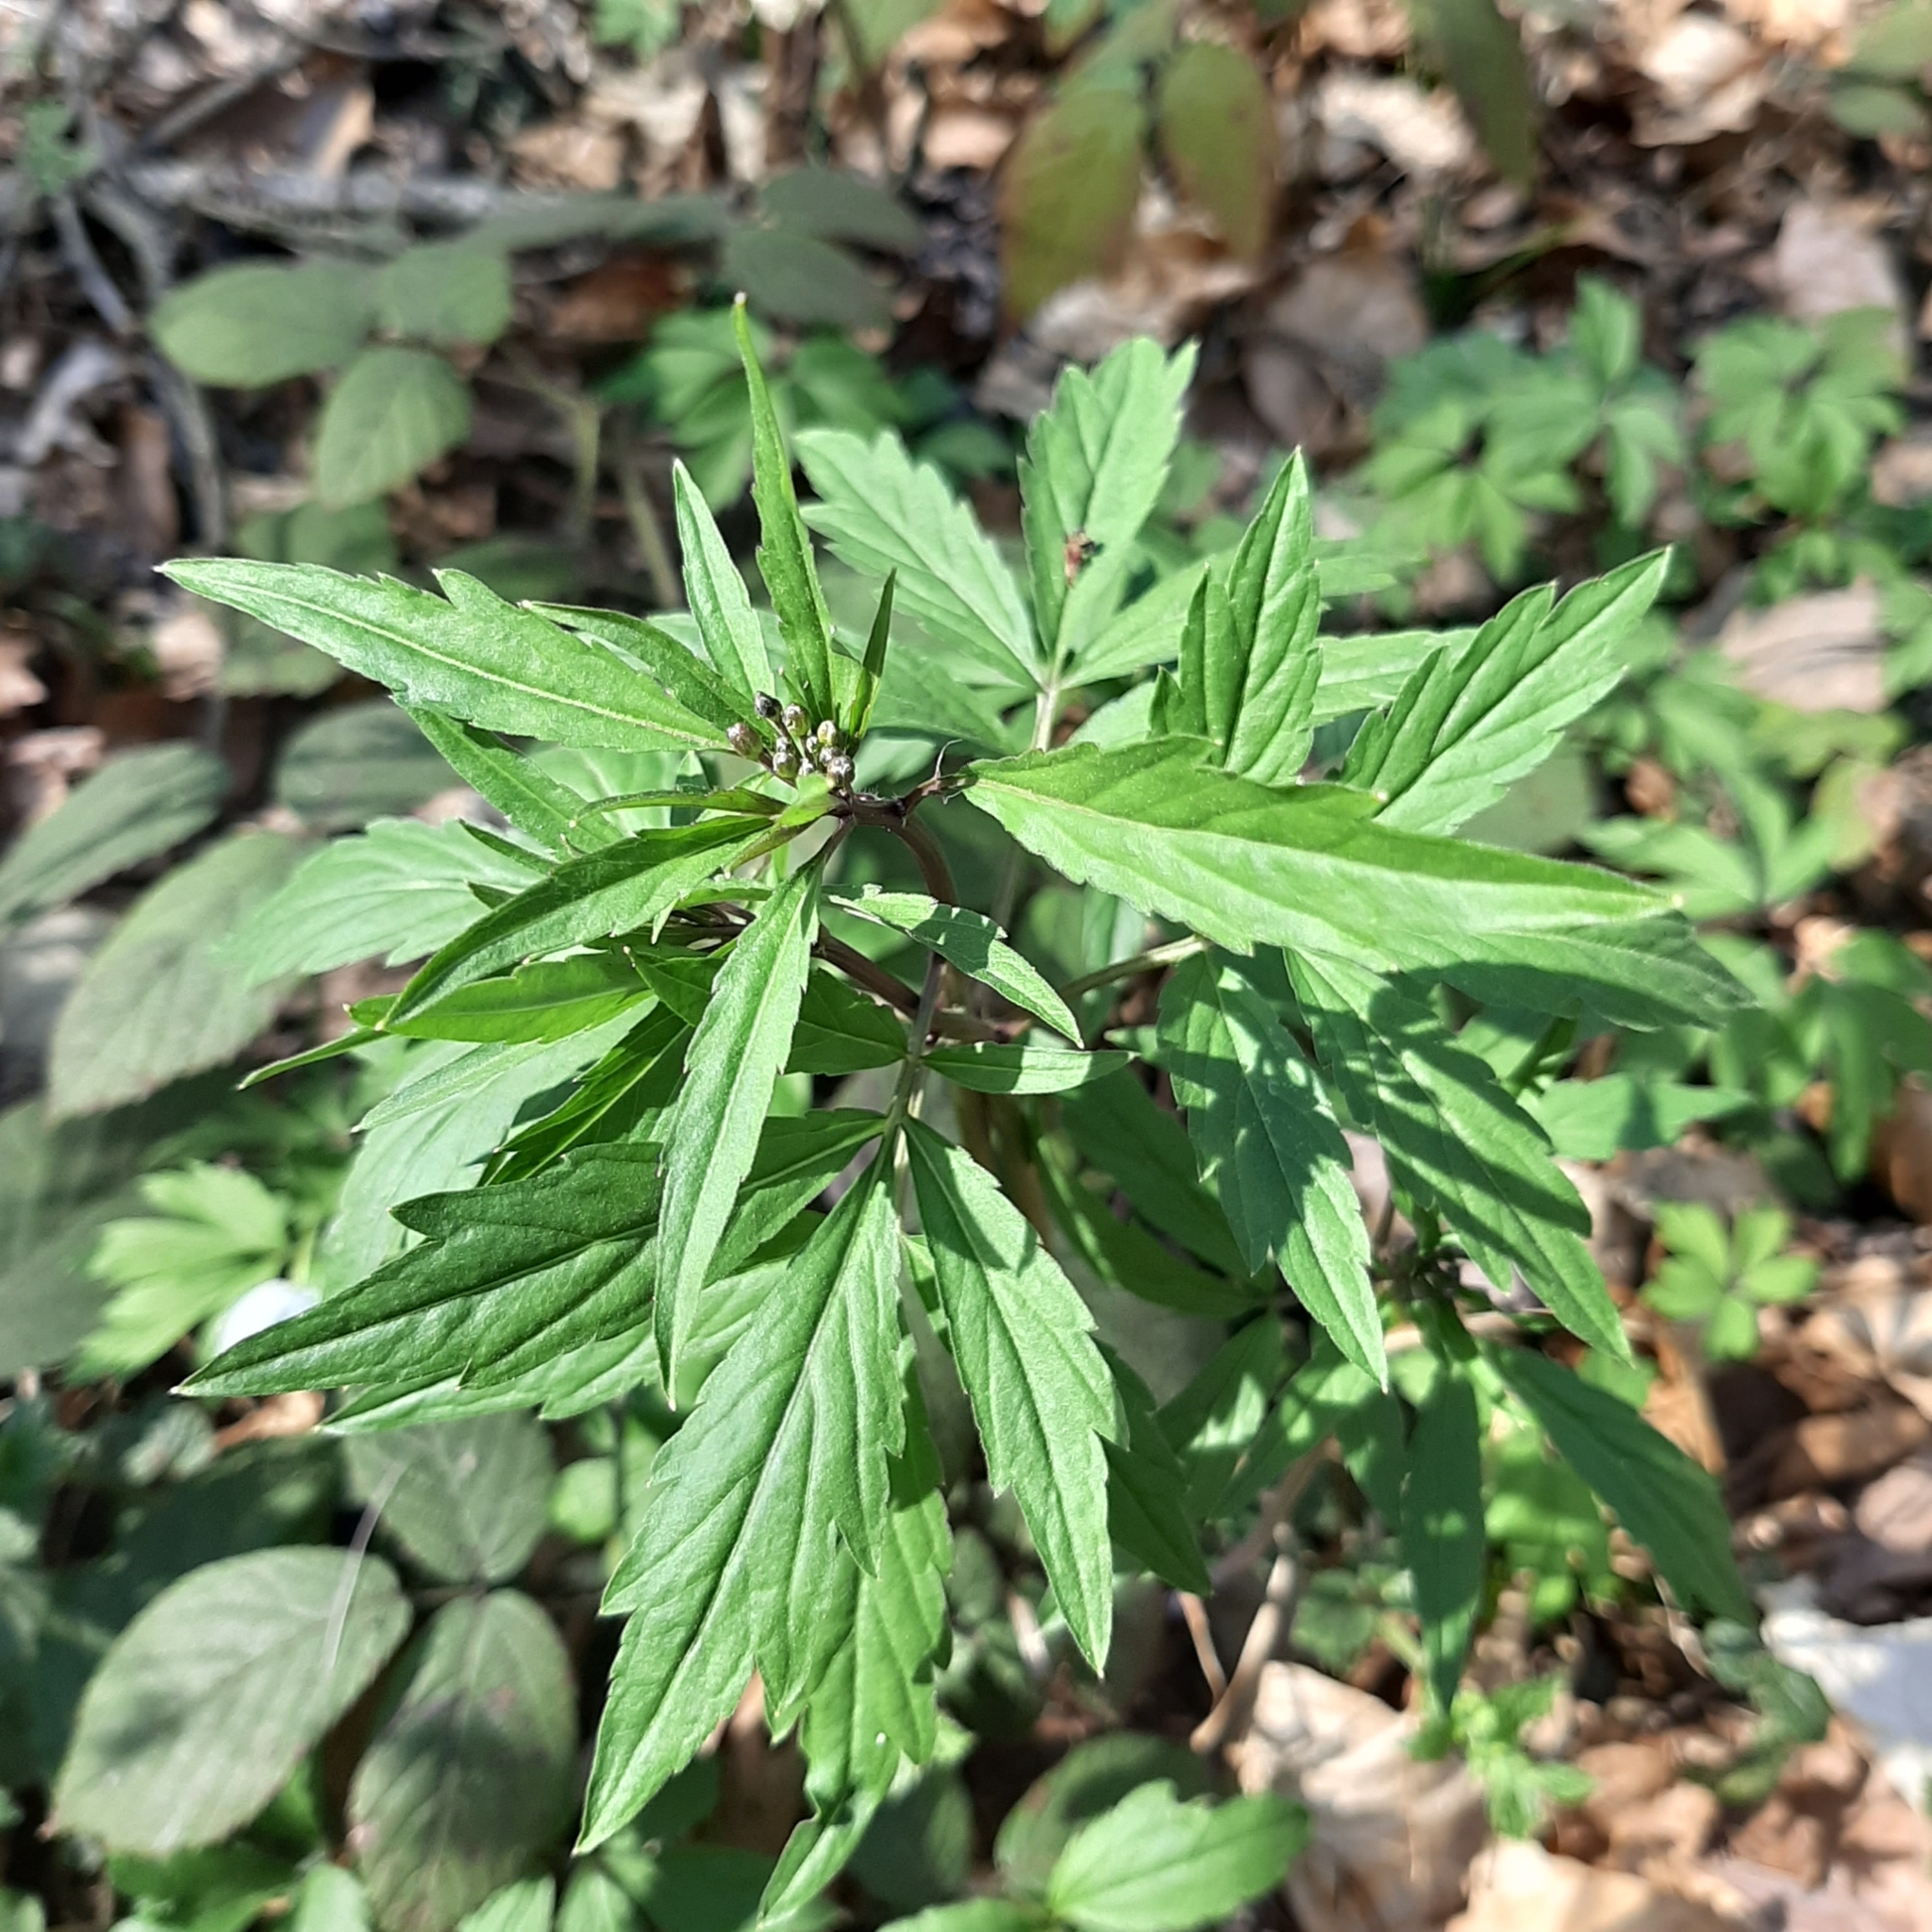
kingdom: Plantae
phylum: Tracheophyta
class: Magnoliopsida
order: Brassicales
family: Brassicaceae
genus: Cardamine
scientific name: Cardamine bulbifera
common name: Coralroot bittercress
